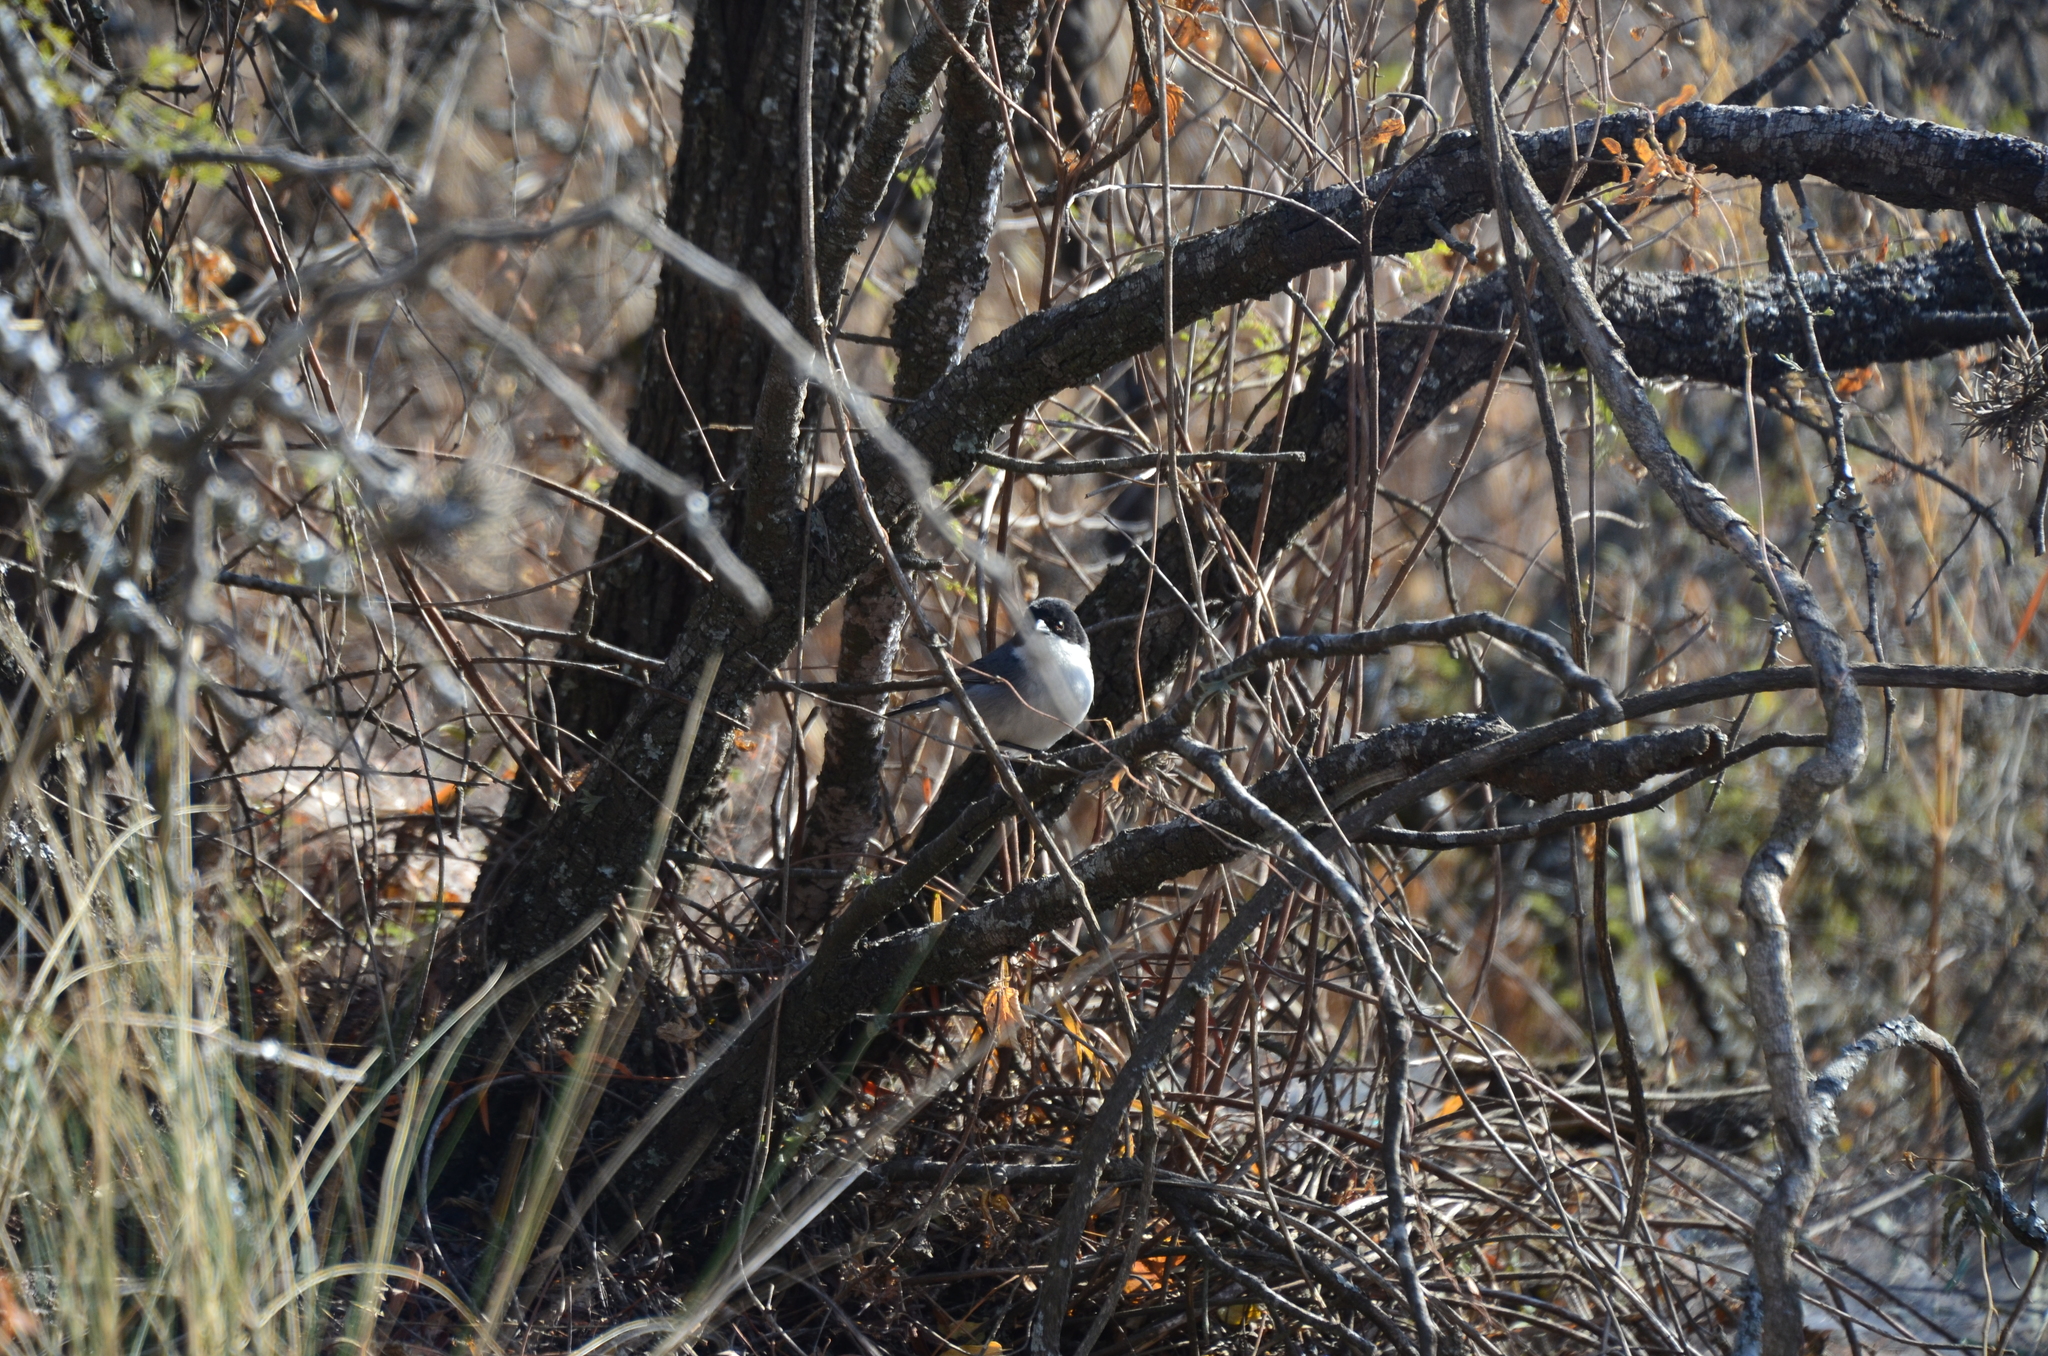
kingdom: Animalia
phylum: Chordata
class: Aves
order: Passeriformes
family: Thraupidae
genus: Microspingus
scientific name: Microspingus melanoleucus
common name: Black-capped warbling-finch
